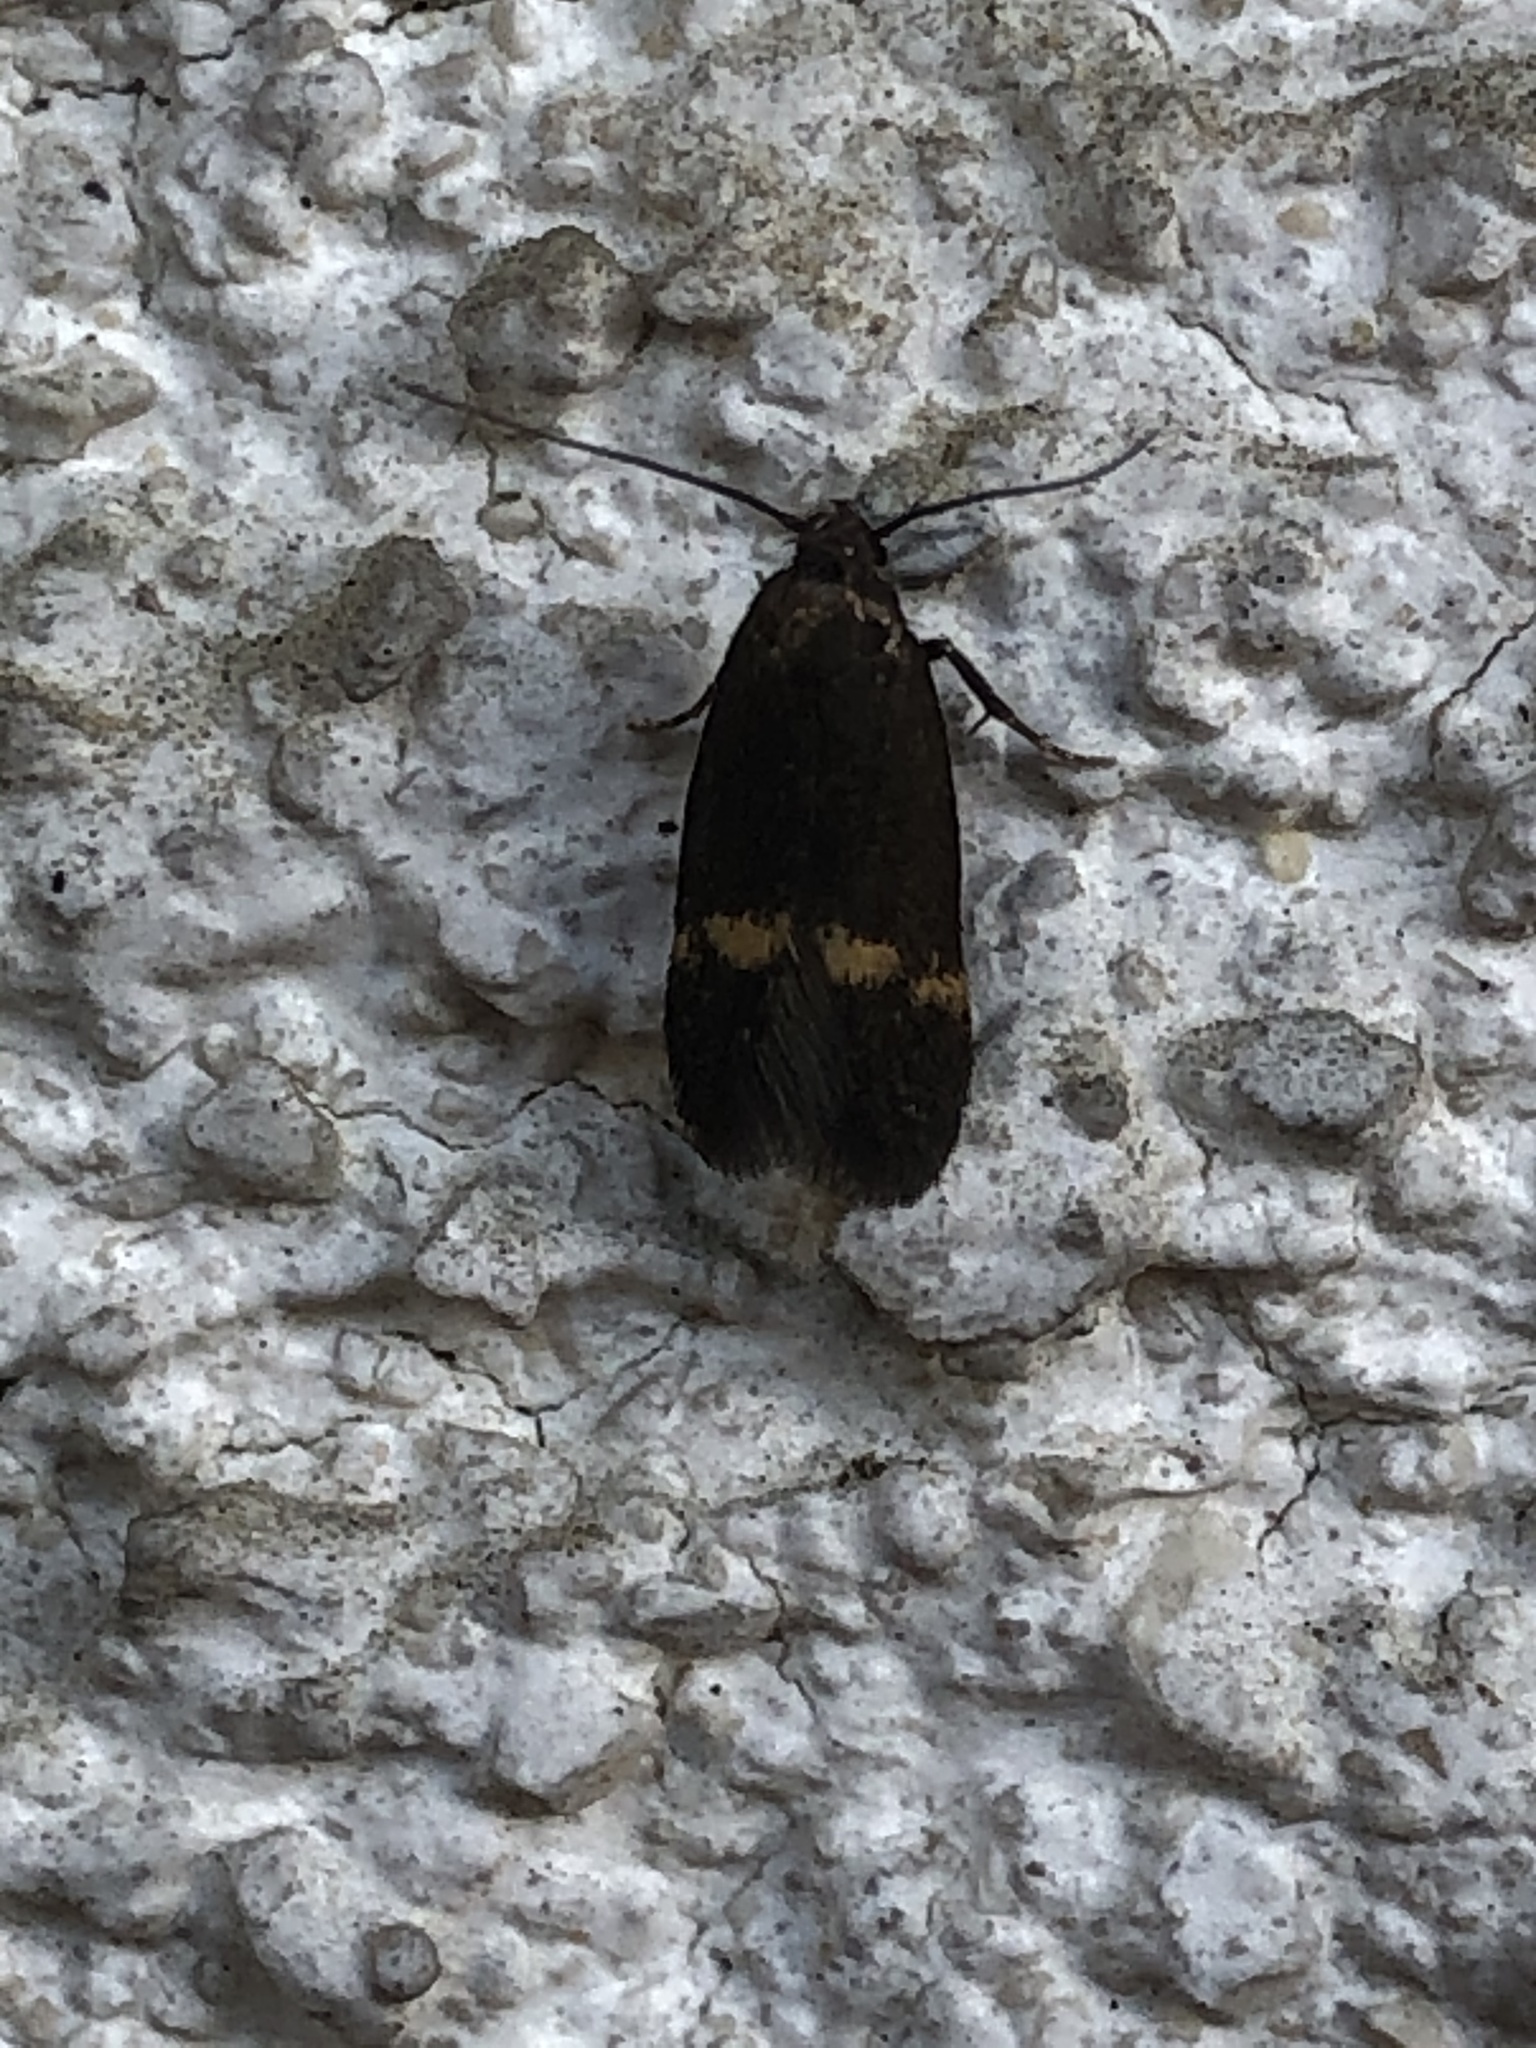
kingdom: Animalia
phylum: Arthropoda
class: Insecta
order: Lepidoptera
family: Oecophoridae
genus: Borkhausenia
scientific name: Borkhausenia minutella
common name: Thatch tubic
